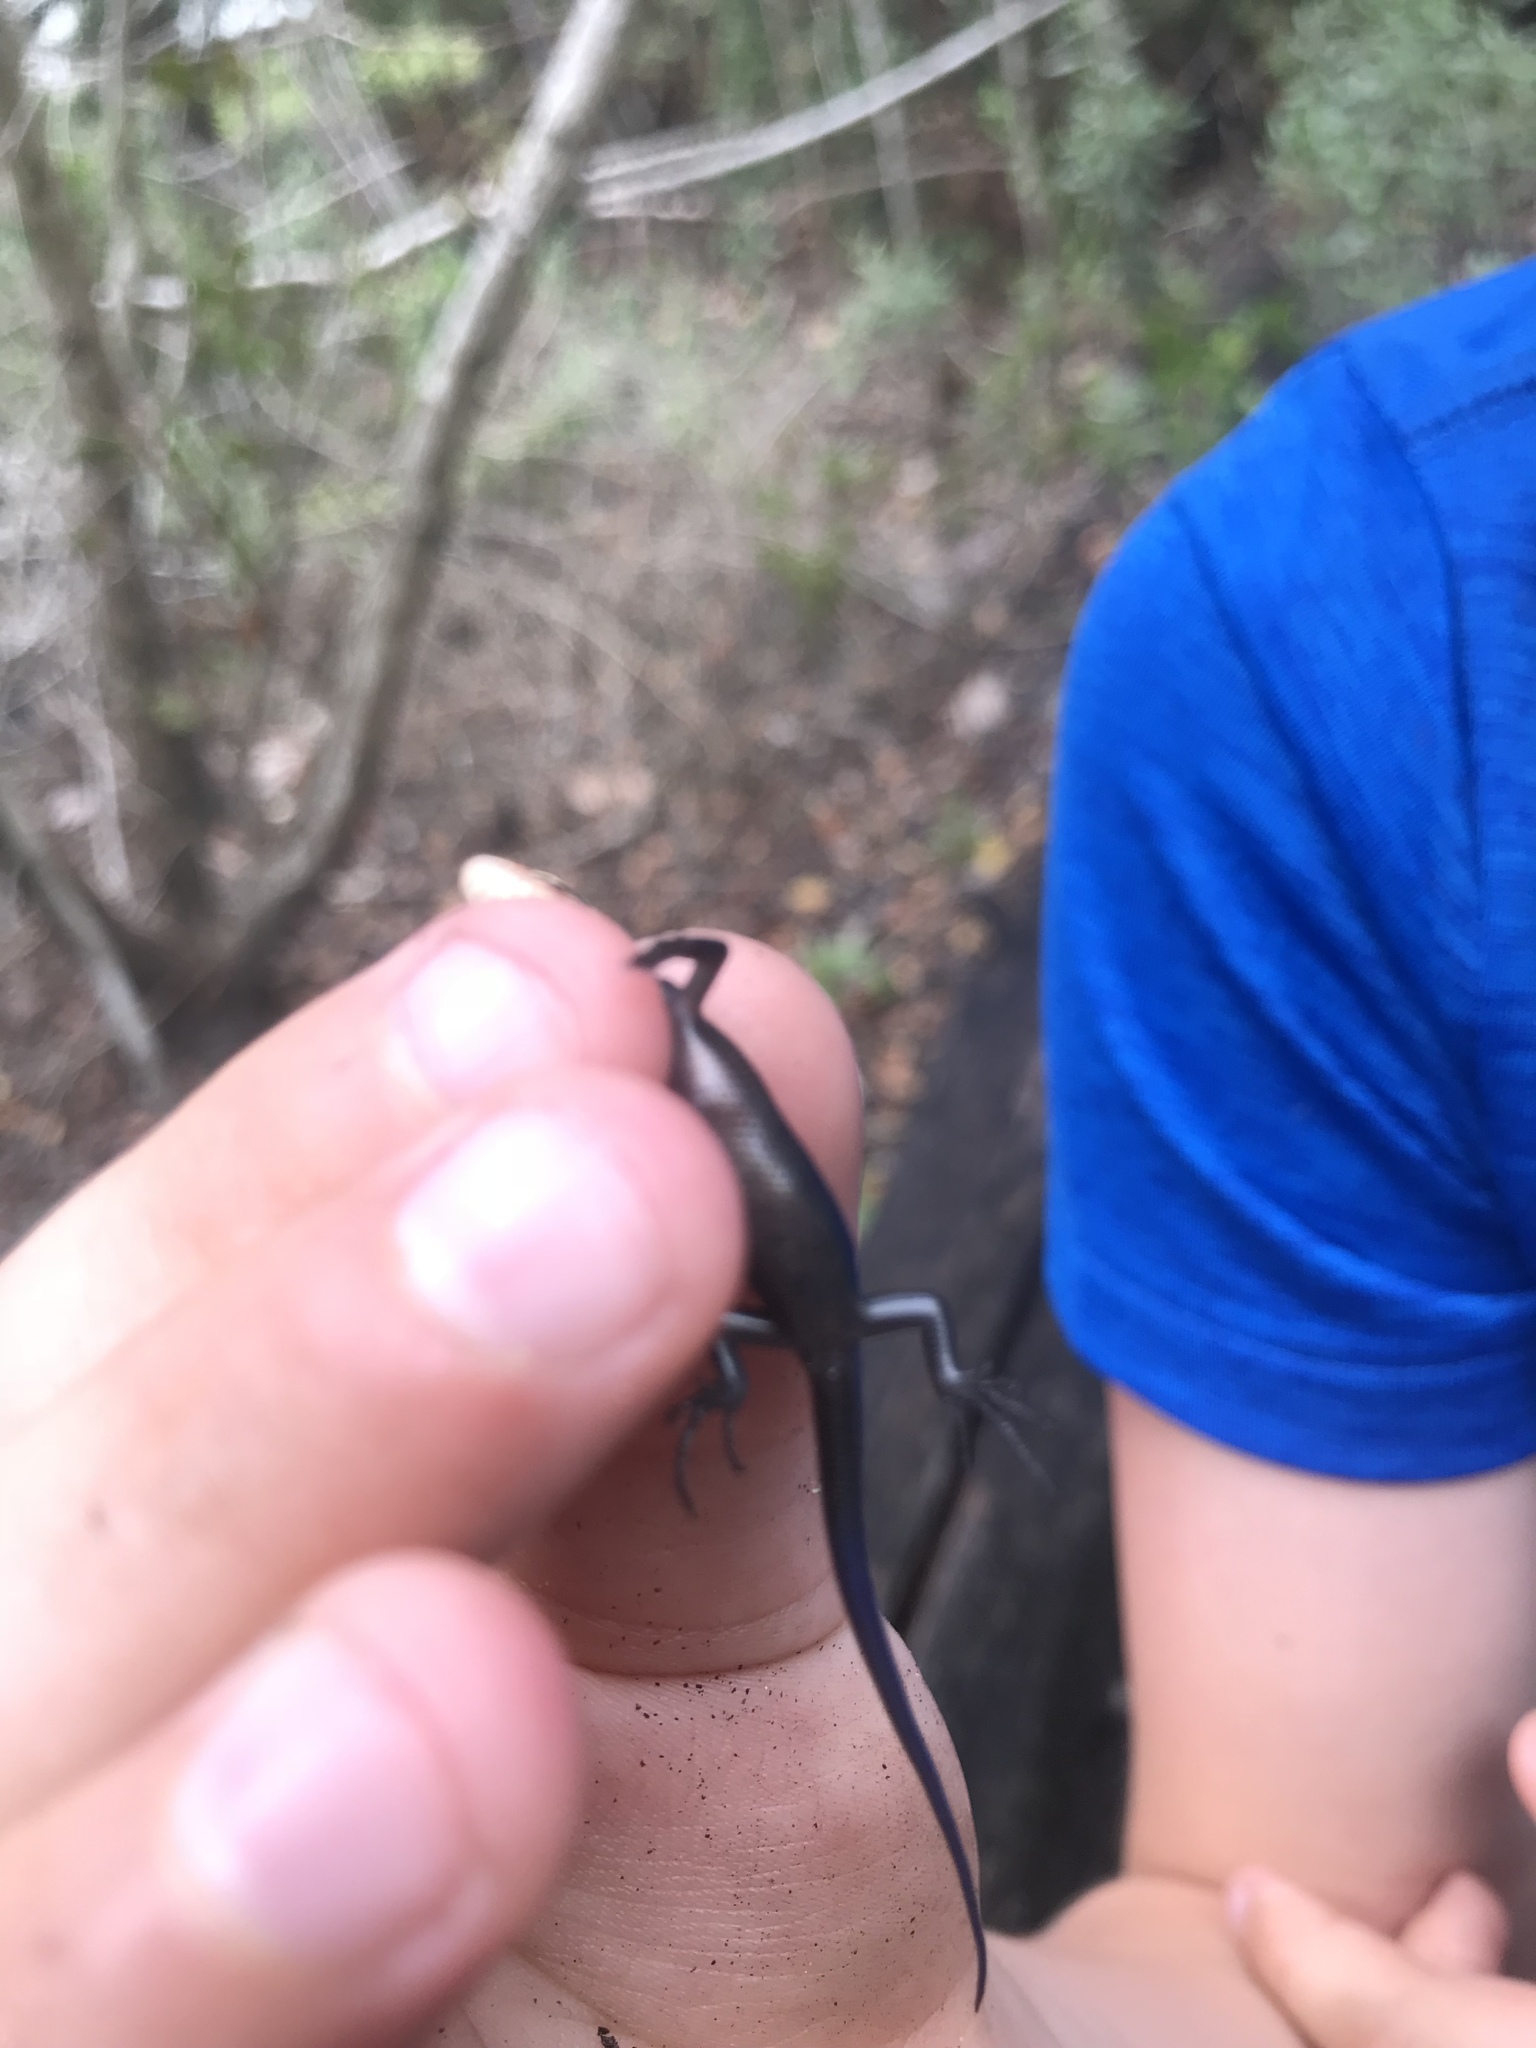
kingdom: Animalia
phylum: Chordata
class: Squamata
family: Scincidae
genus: Plestiodon
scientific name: Plestiodon inexpectatus
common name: Southeastern five-lined skink
